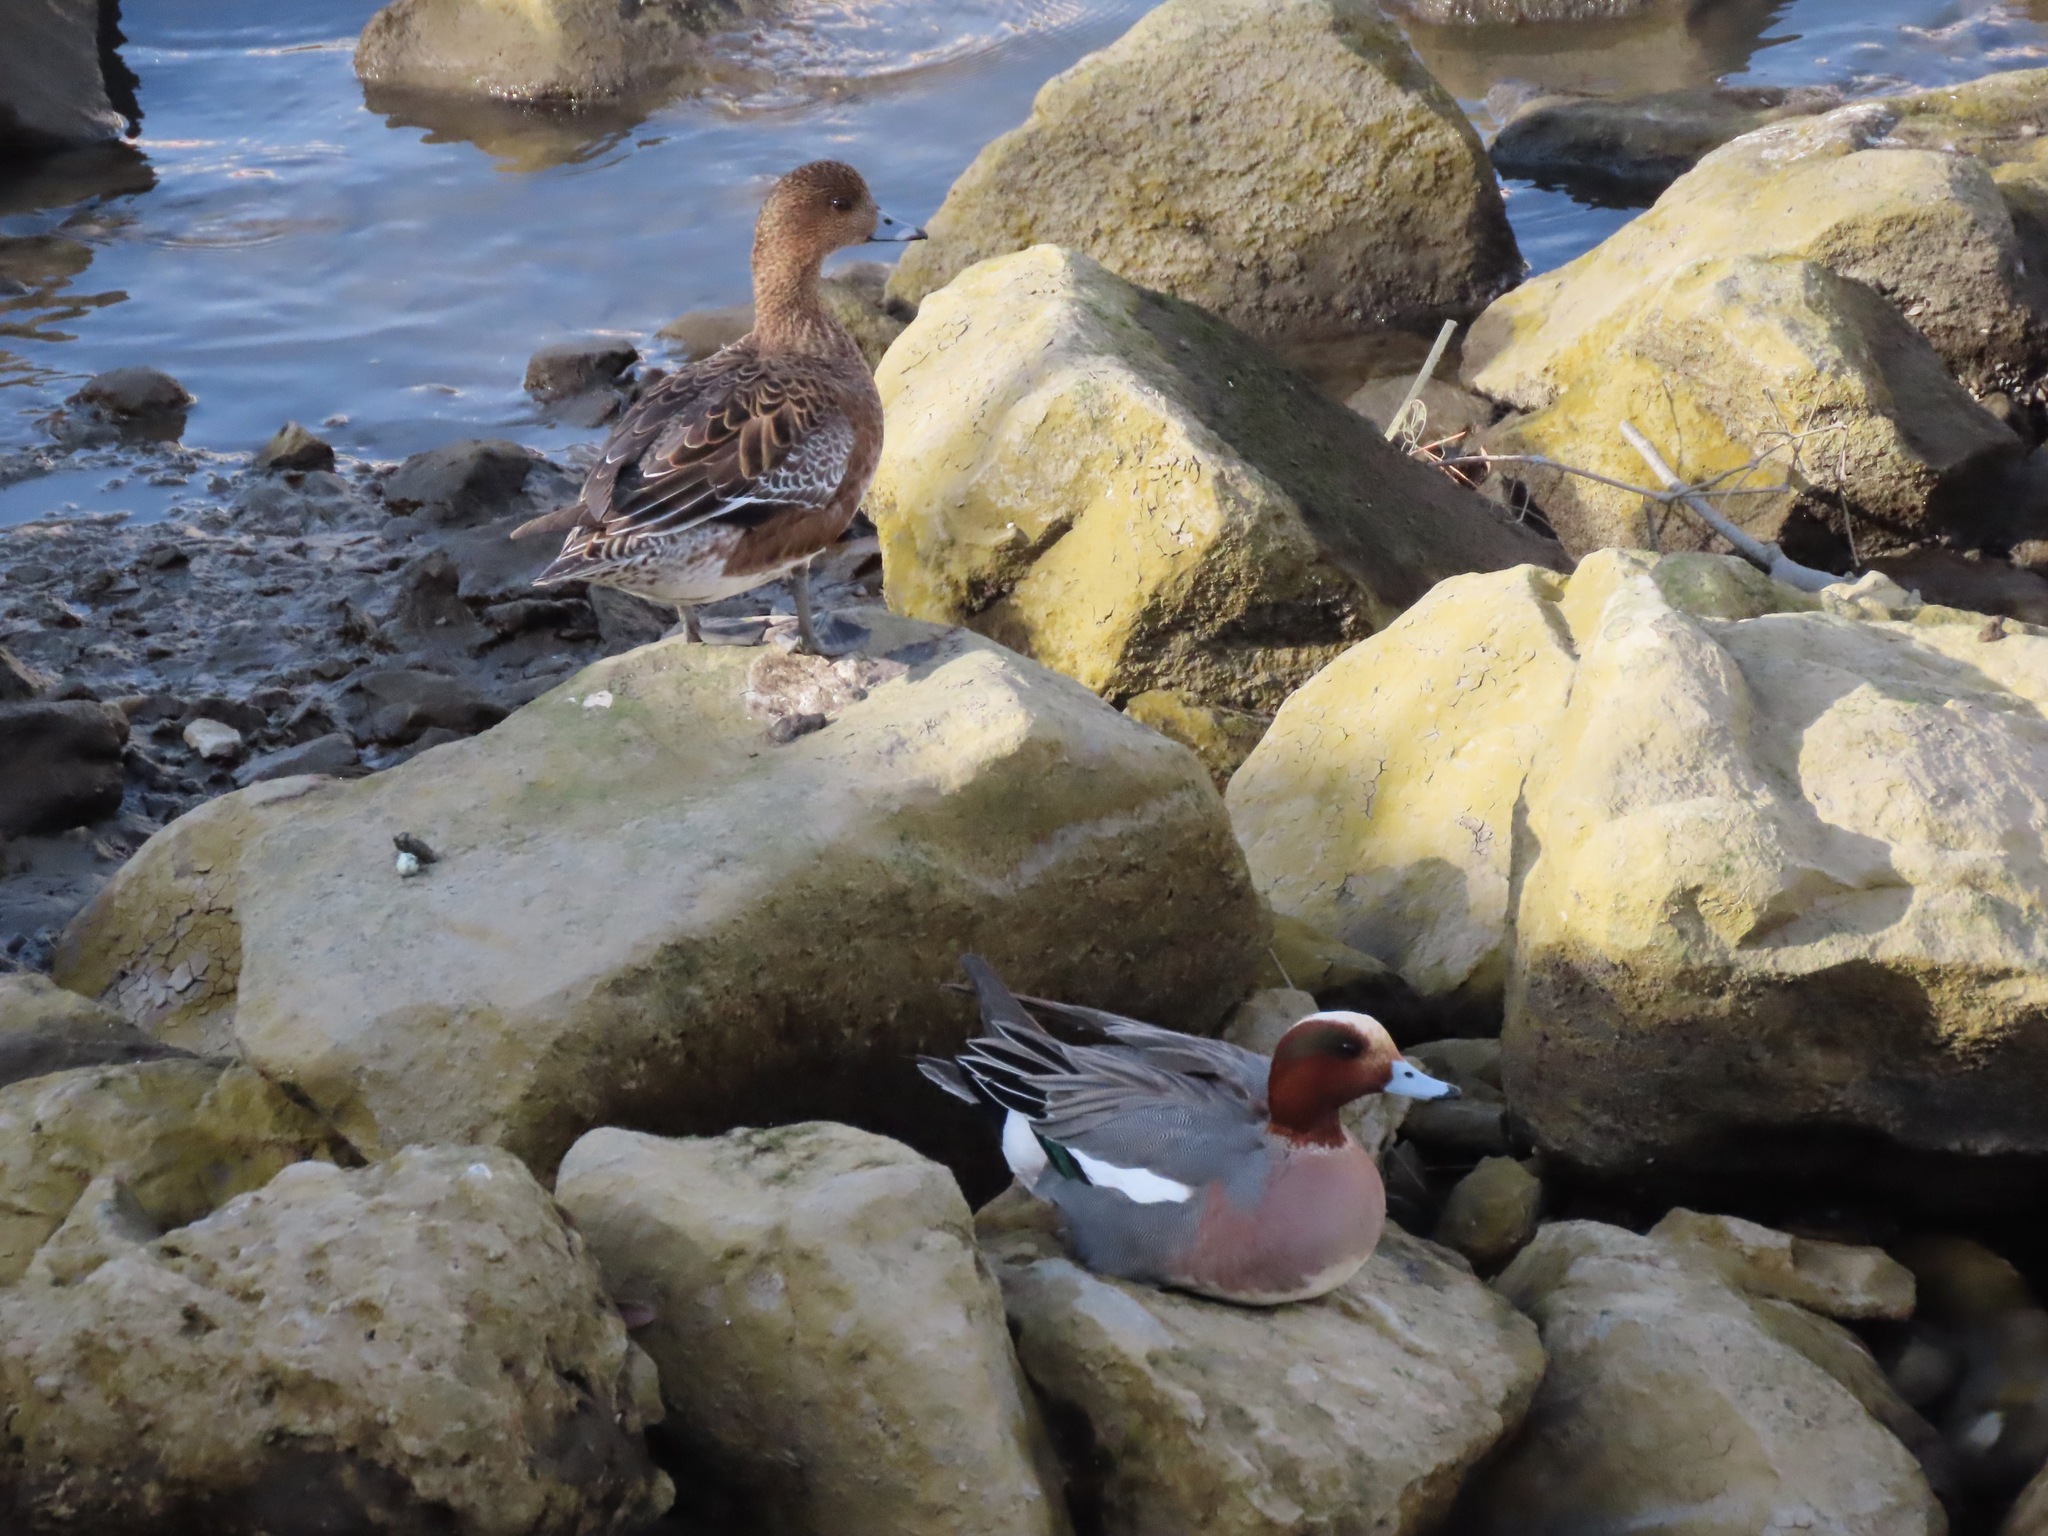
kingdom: Animalia
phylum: Chordata
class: Aves
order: Anseriformes
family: Anatidae
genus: Mareca
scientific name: Mareca penelope
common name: Eurasian wigeon
